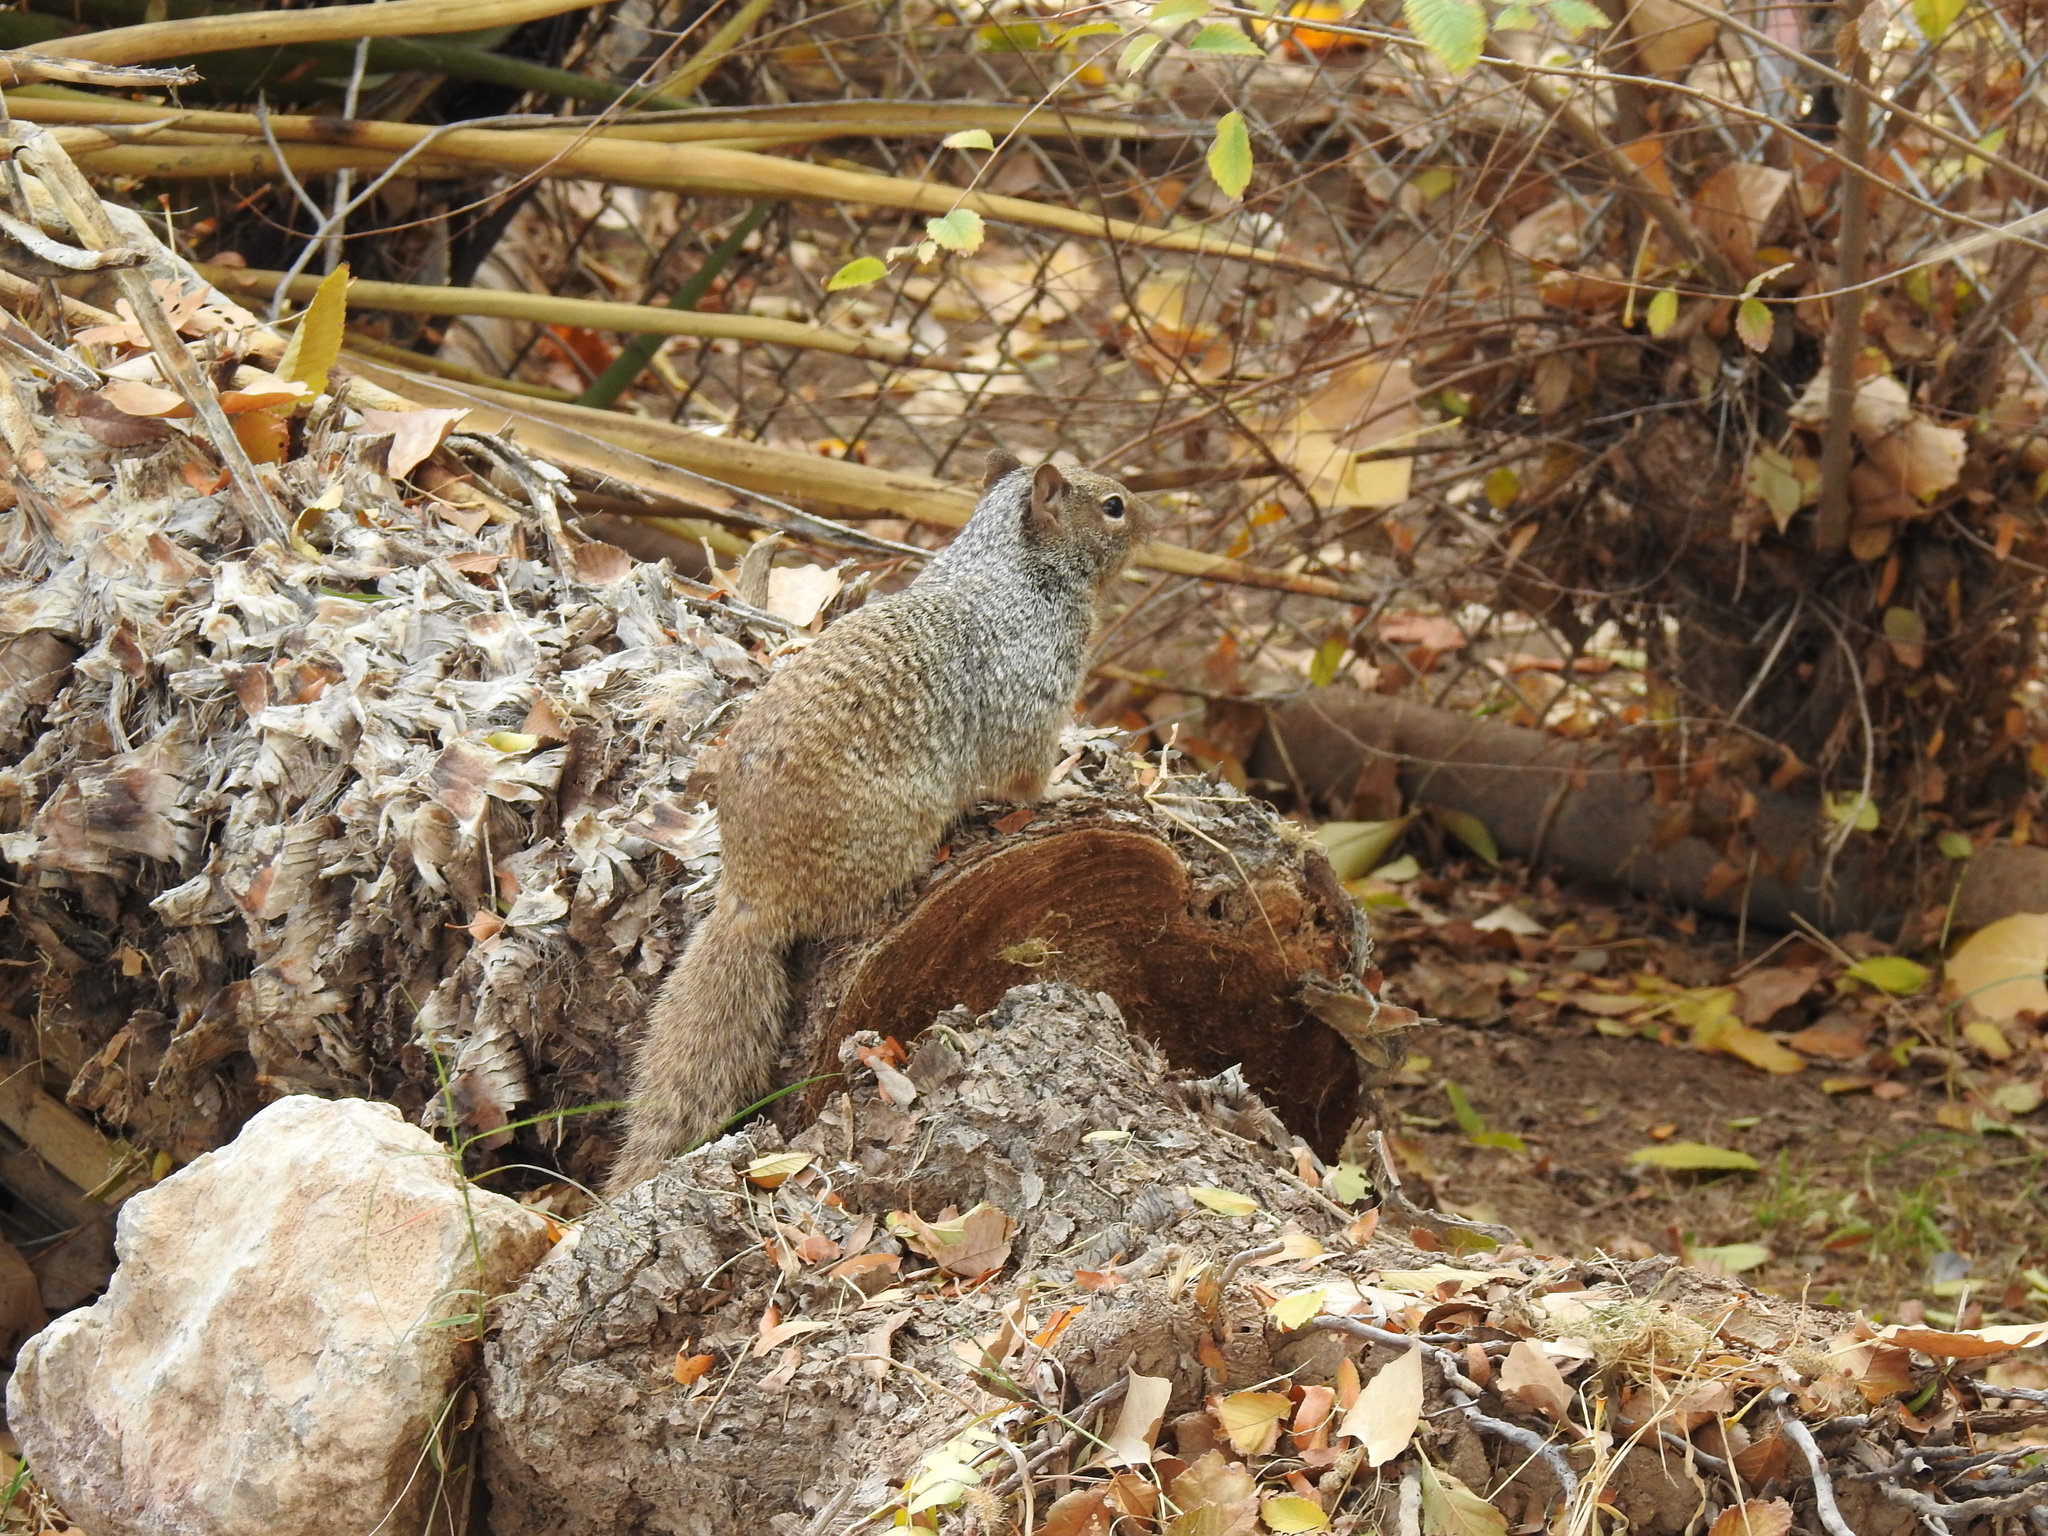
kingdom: Animalia
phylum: Chordata
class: Mammalia
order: Rodentia
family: Sciuridae
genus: Otospermophilus
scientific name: Otospermophilus variegatus
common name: Rock squirrel
